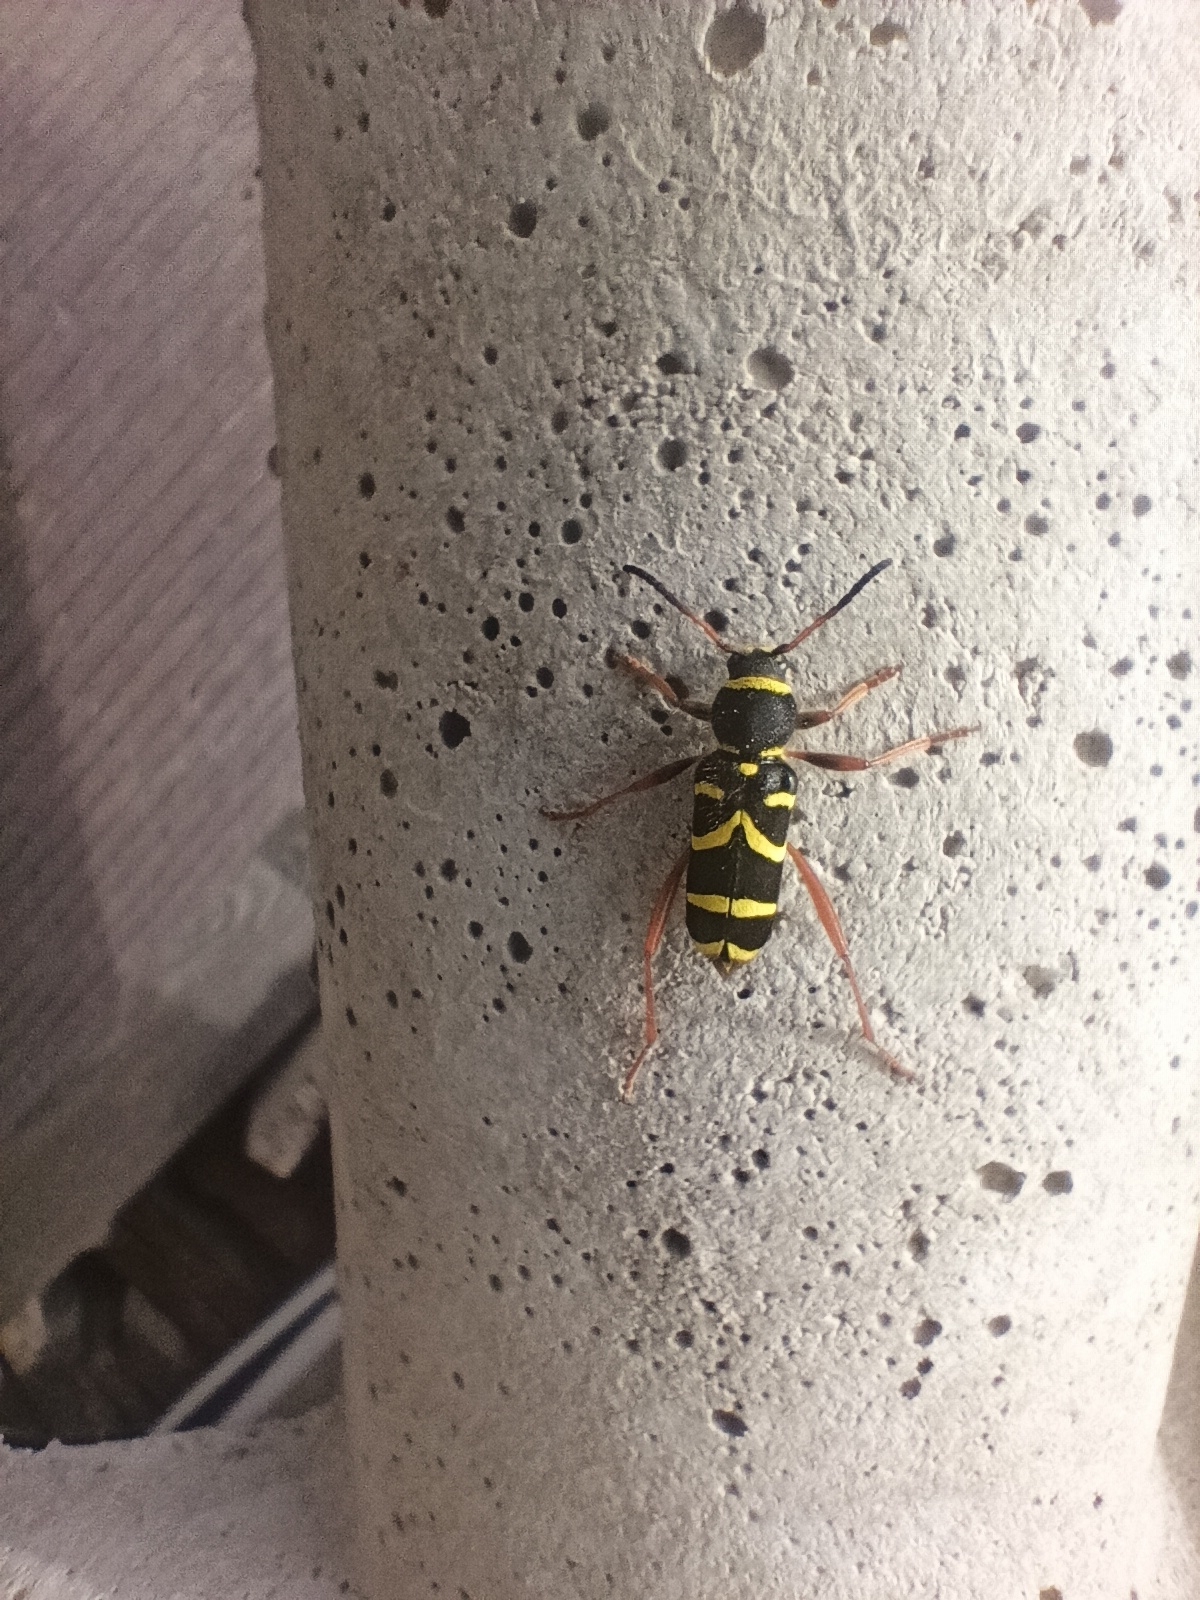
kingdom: Animalia
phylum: Arthropoda
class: Insecta
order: Coleoptera
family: Cerambycidae
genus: Clytus
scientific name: Clytus arietis
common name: Wasp beetle
